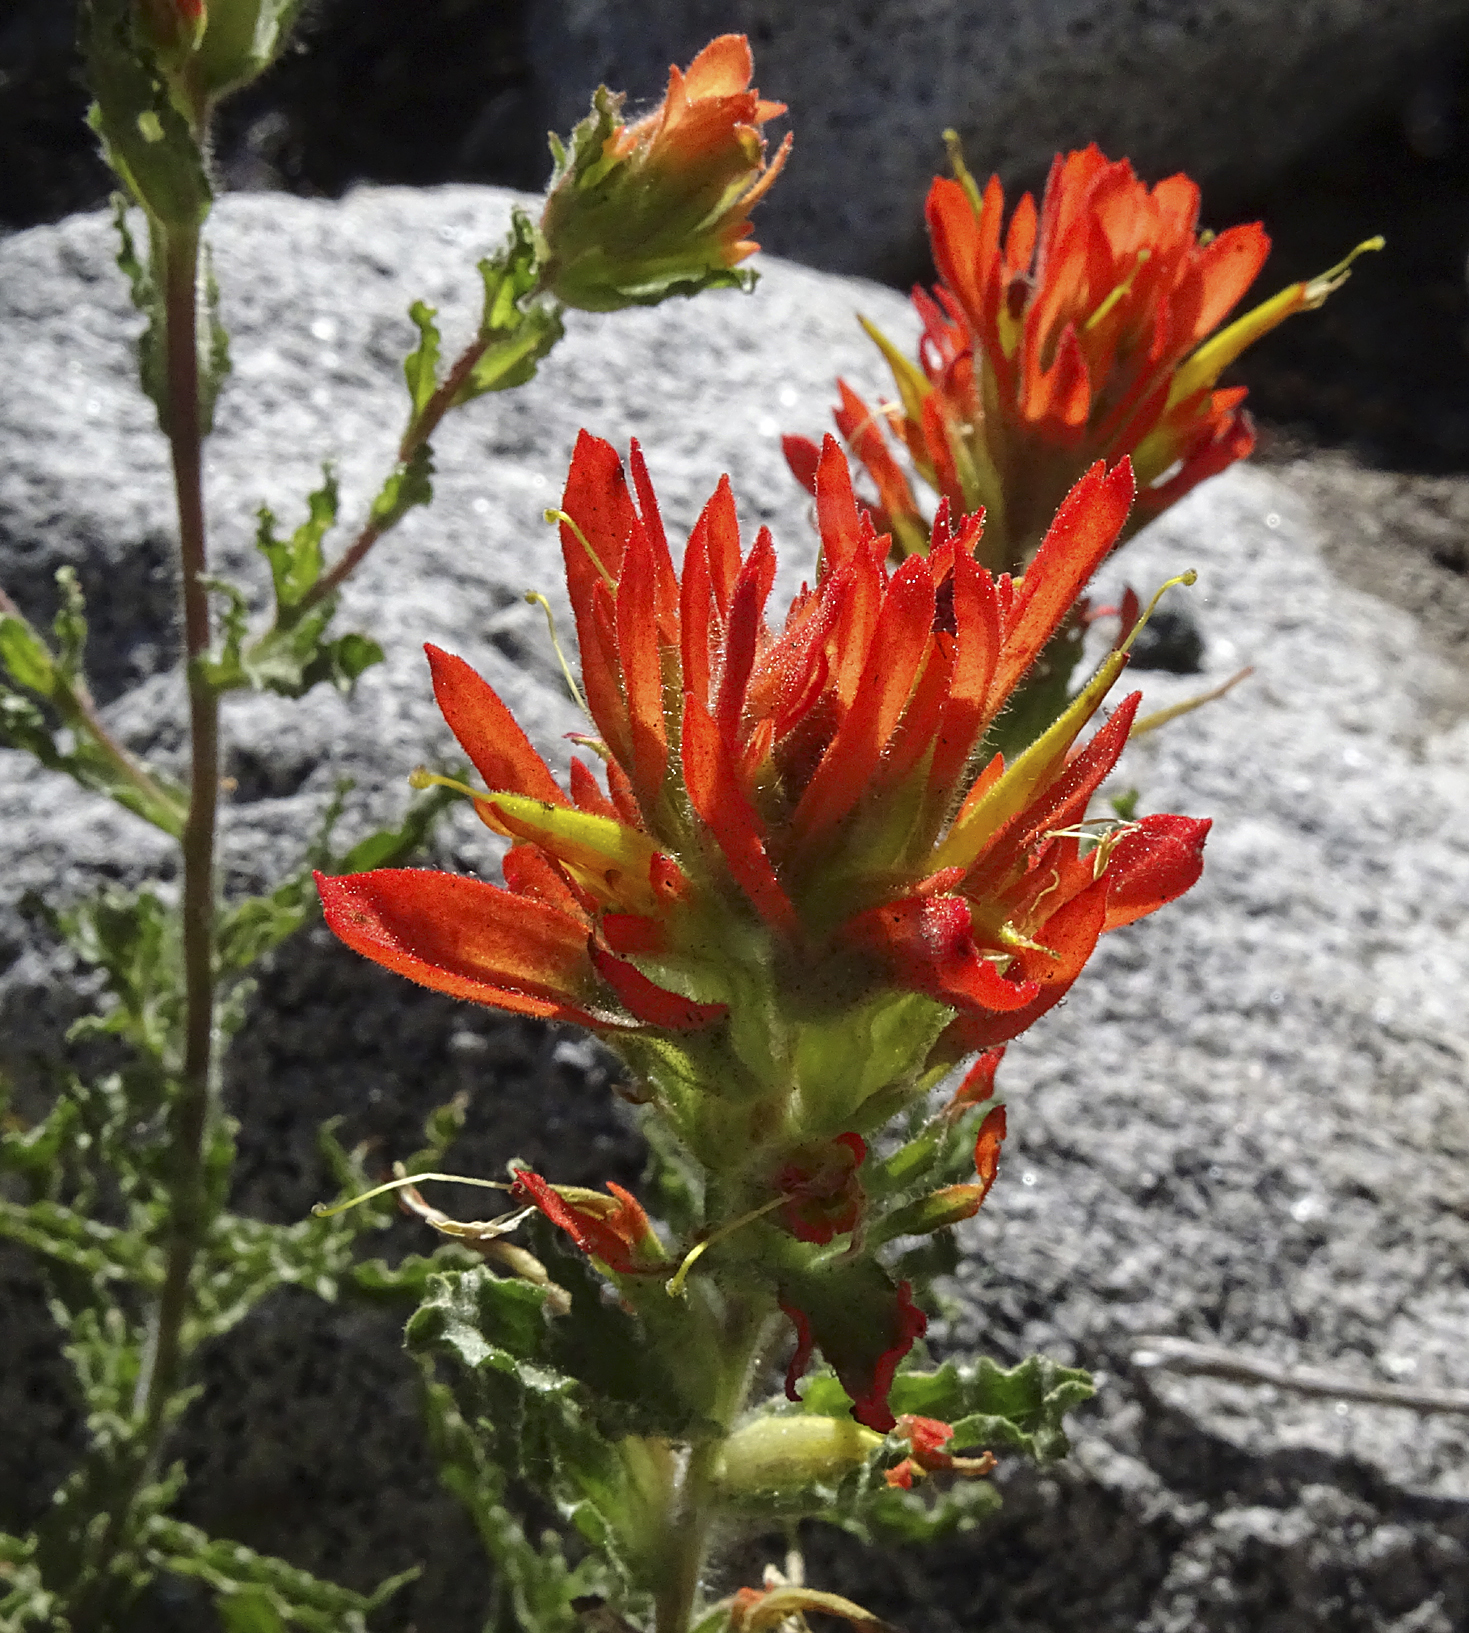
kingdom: Plantae
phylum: Tracheophyta
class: Magnoliopsida
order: Lamiales
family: Orobanchaceae
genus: Castilleja
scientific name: Castilleja applegatei
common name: Wavy-leaf paintbrush
